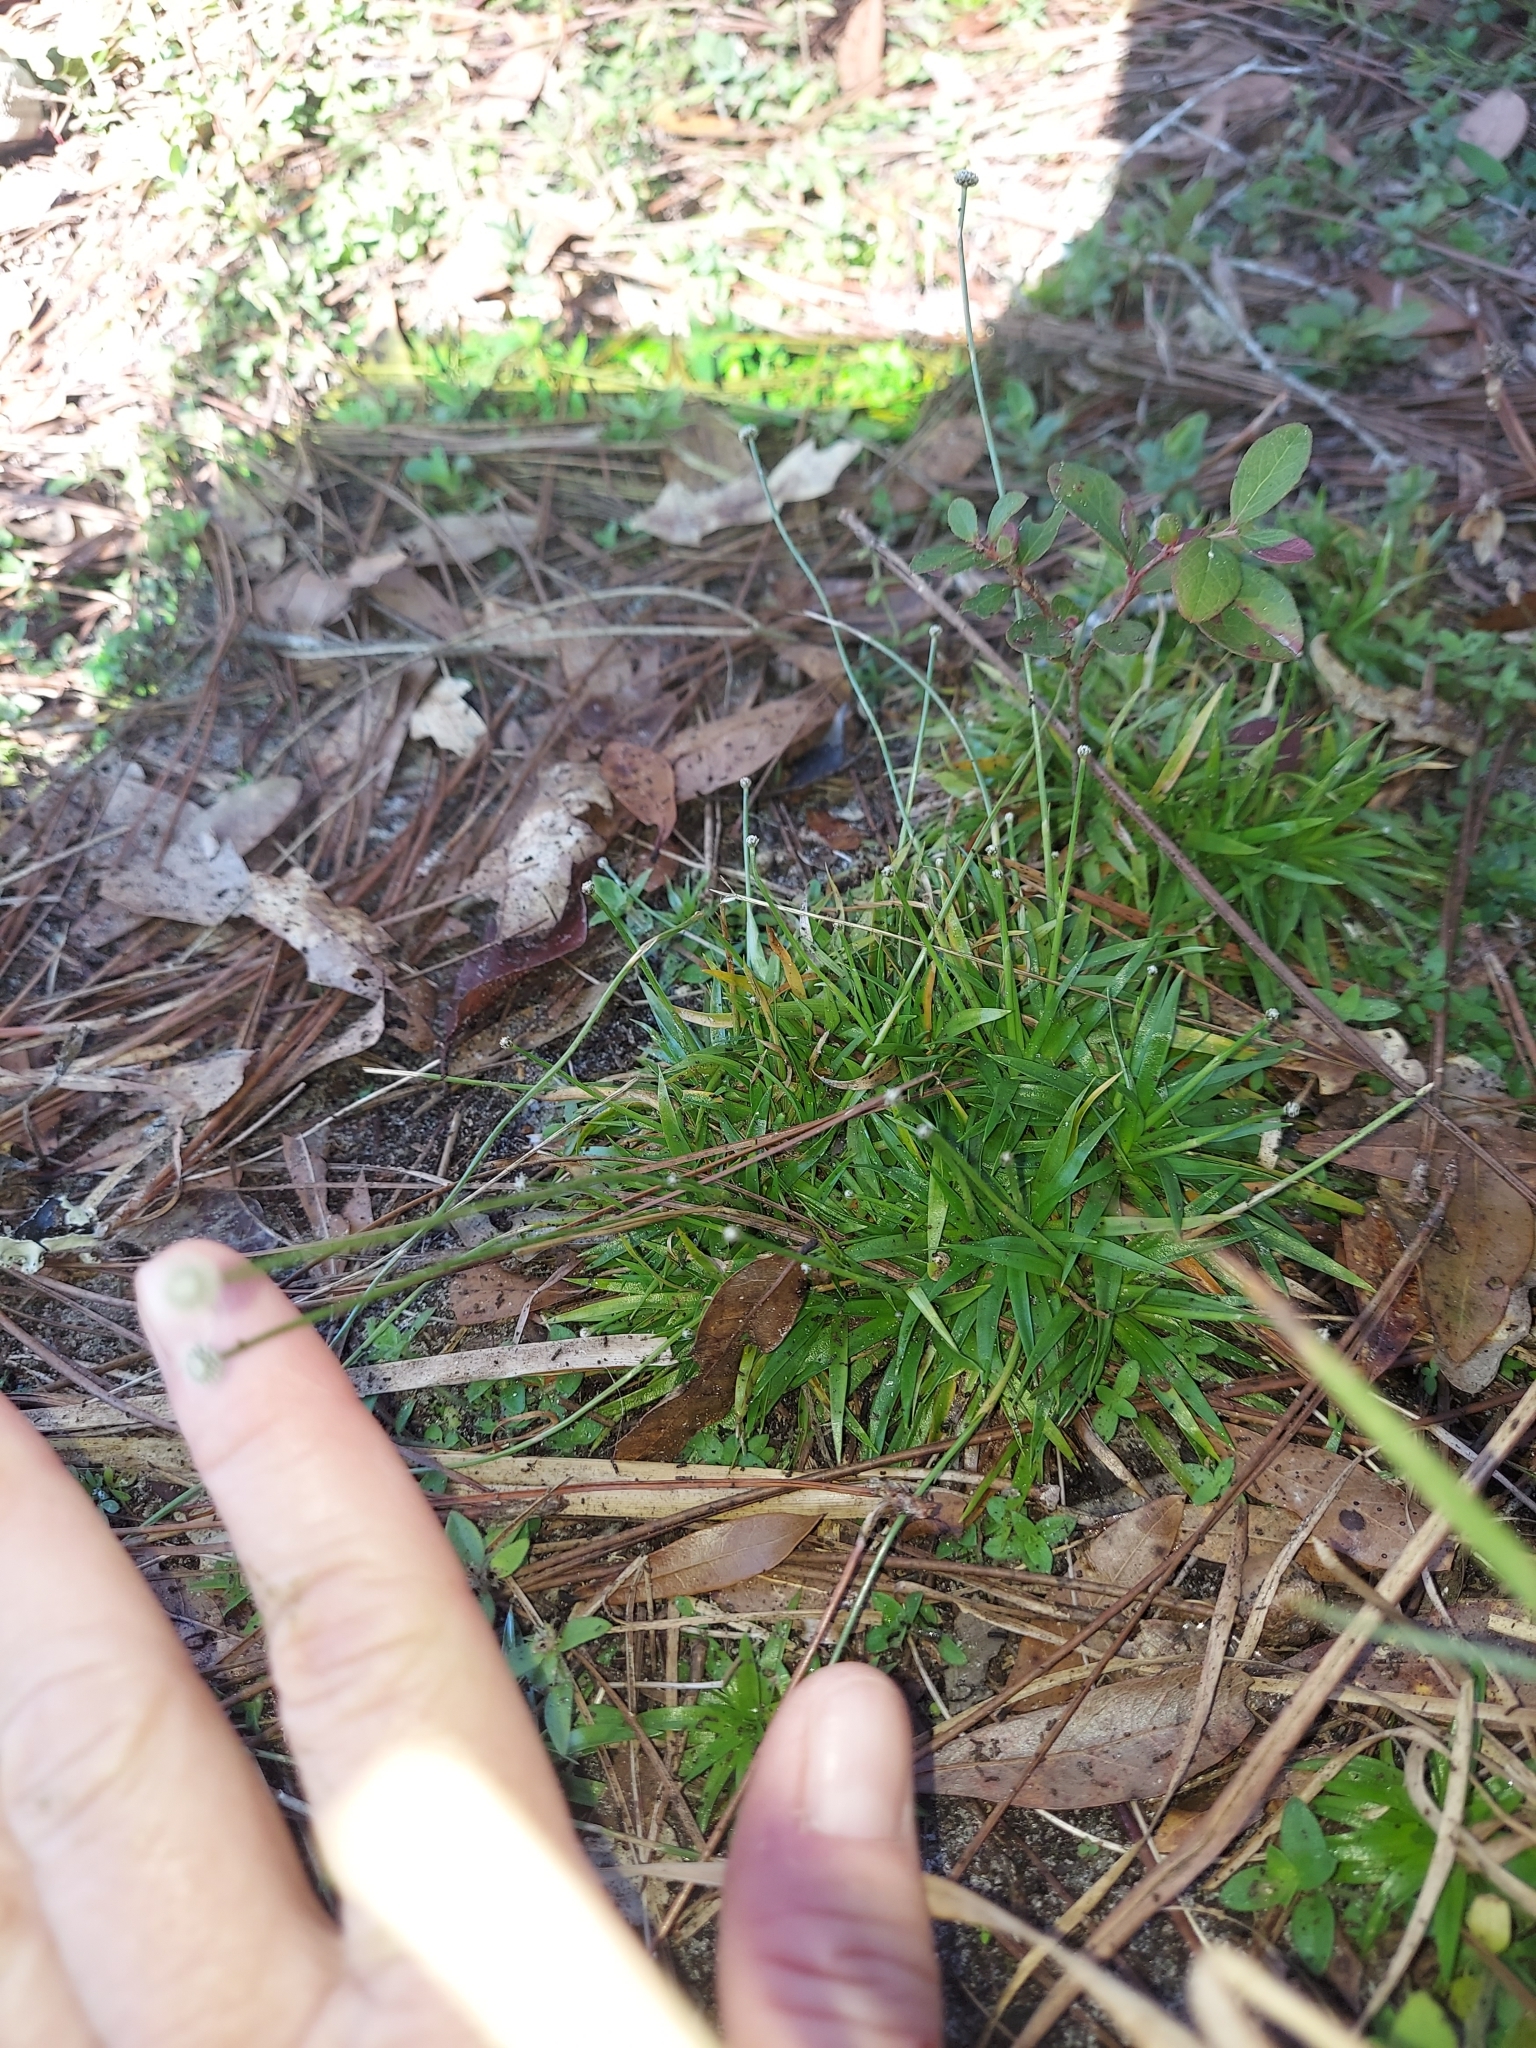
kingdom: Plantae
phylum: Tracheophyta
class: Liliopsida
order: Poales
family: Eriocaulaceae
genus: Paepalanthus
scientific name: Paepalanthus anceps
